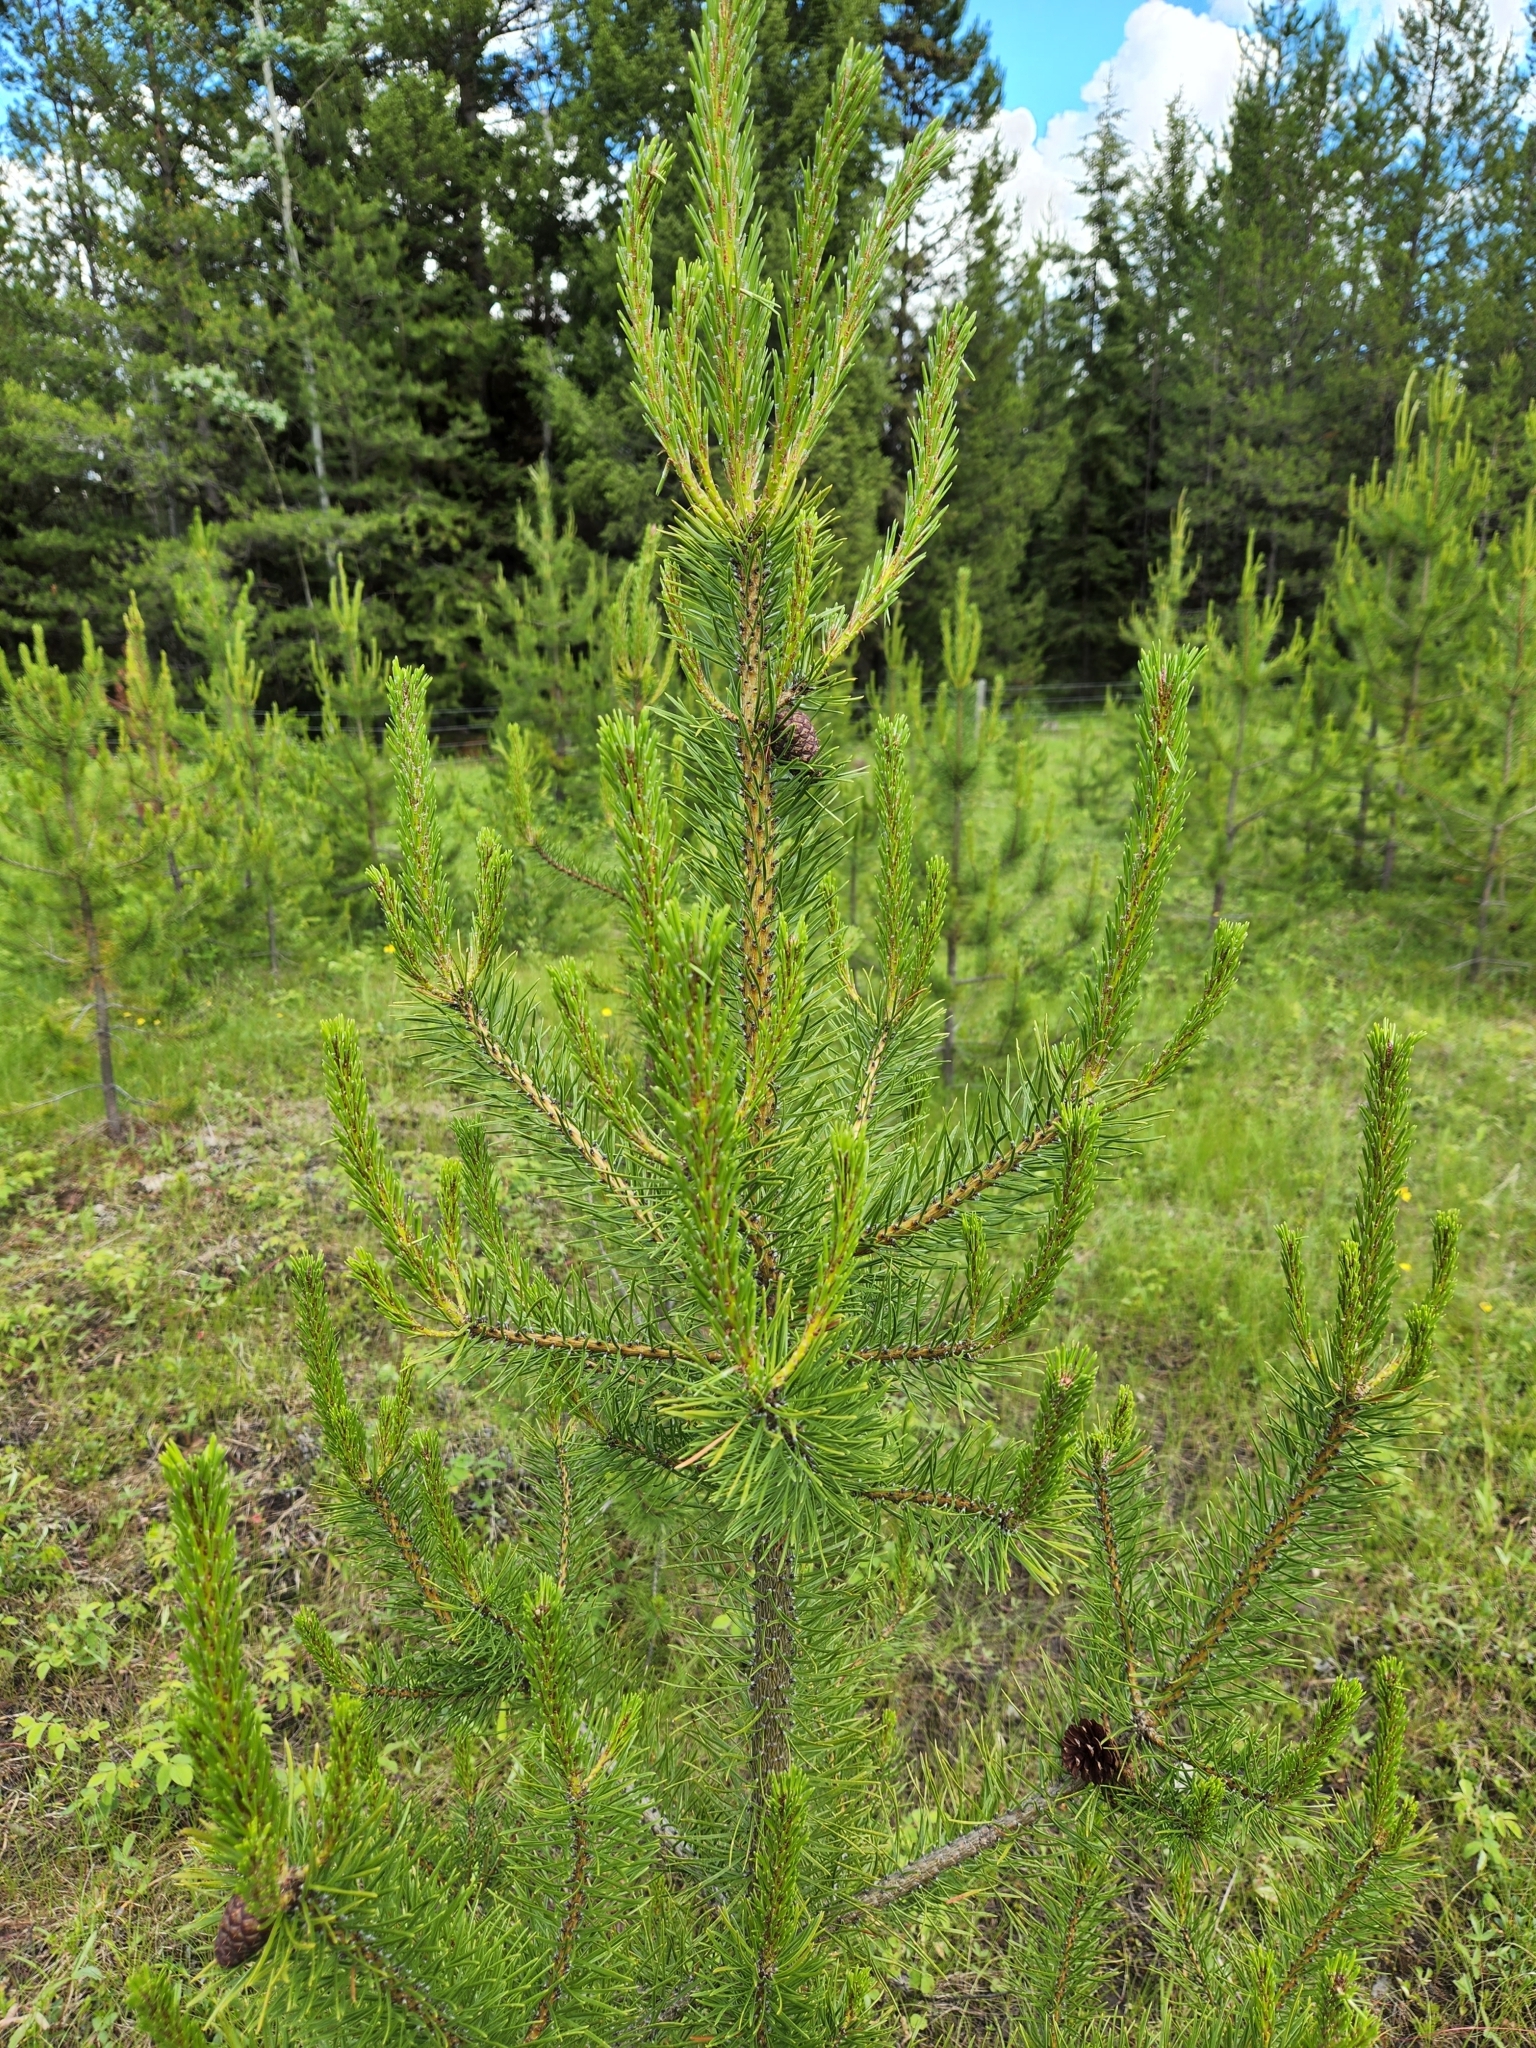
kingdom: Plantae
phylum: Tracheophyta
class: Pinopsida
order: Pinales
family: Pinaceae
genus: Pinus
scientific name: Pinus contorta
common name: Lodgepole pine
